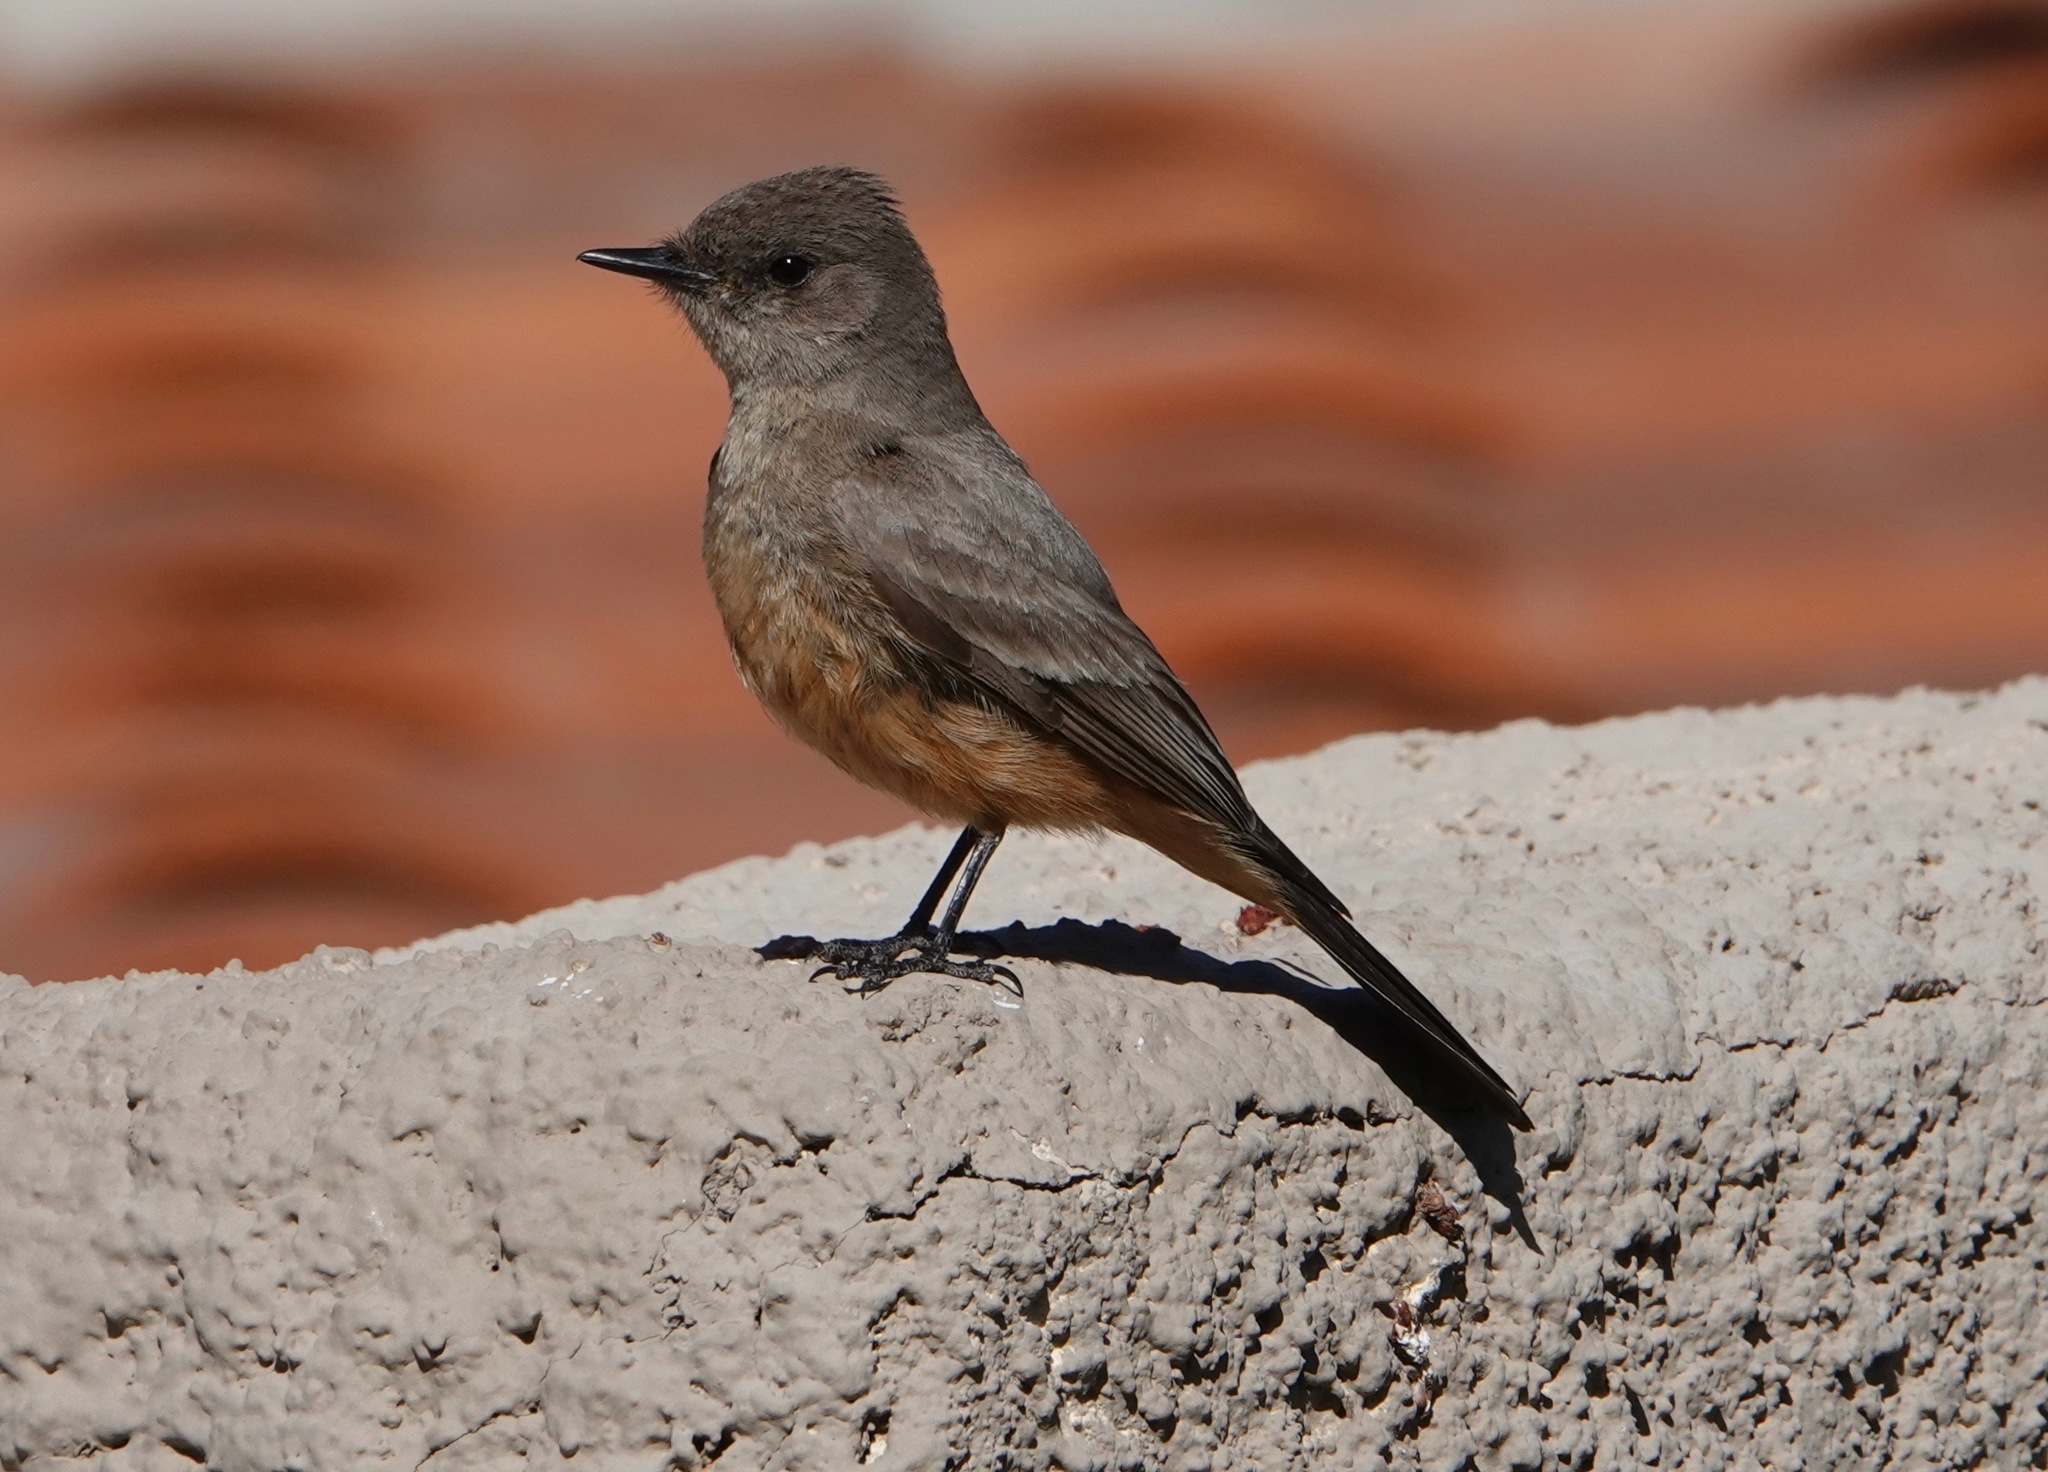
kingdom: Animalia
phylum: Chordata
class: Aves
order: Passeriformes
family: Tyrannidae
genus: Sayornis
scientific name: Sayornis saya
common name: Say's phoebe
